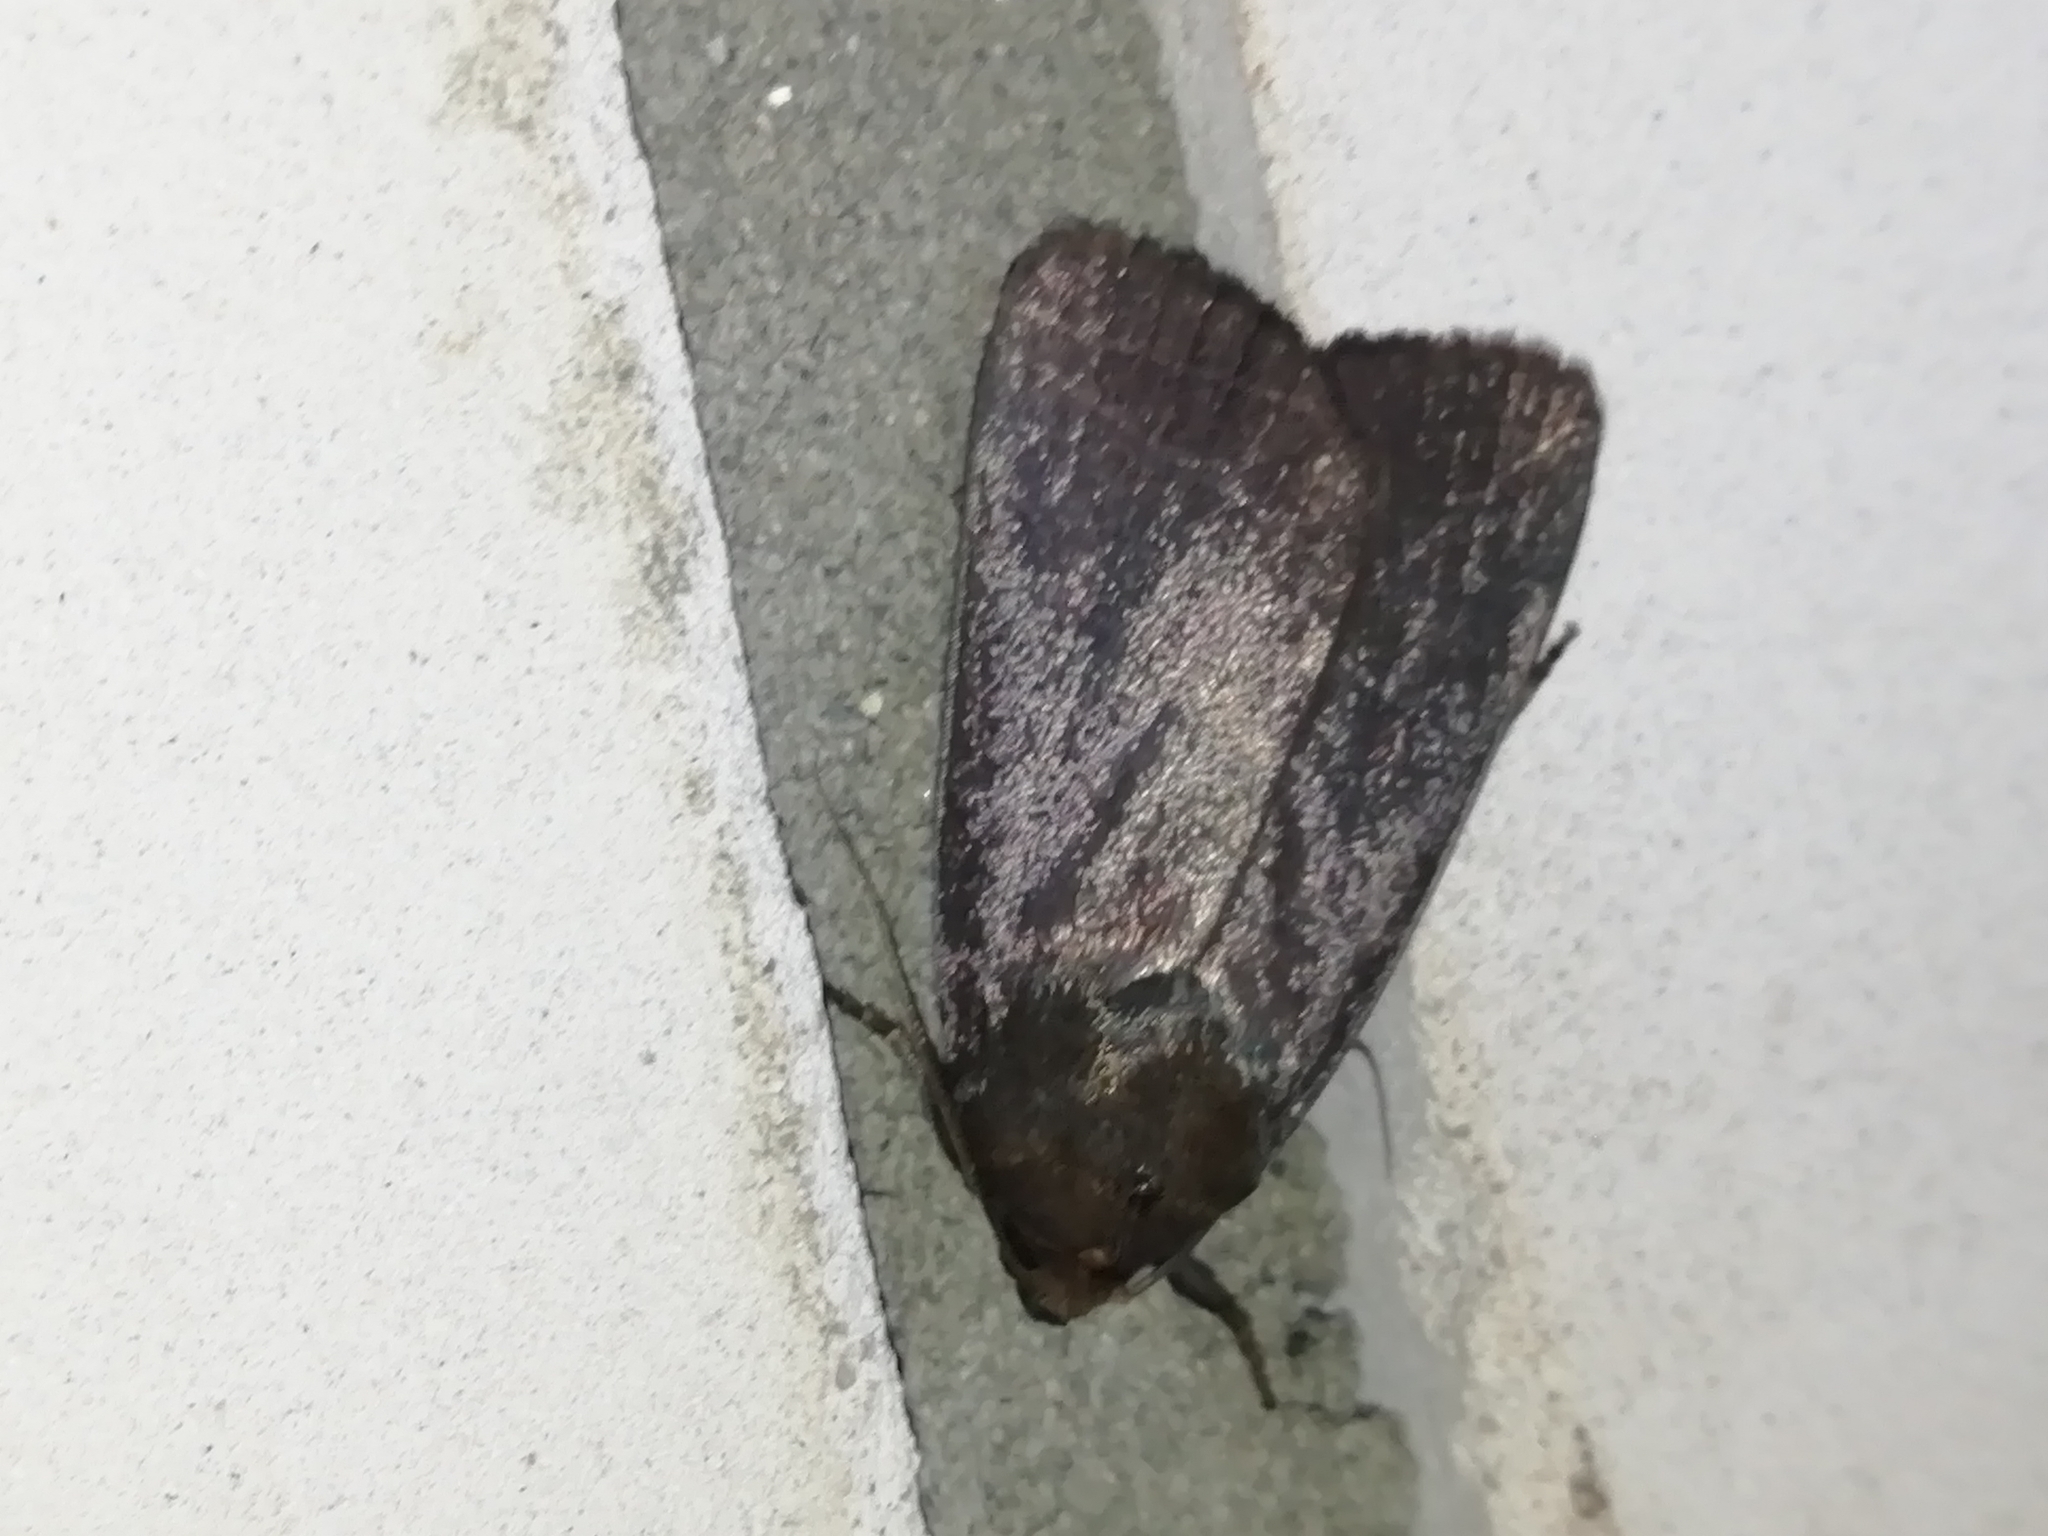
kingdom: Animalia
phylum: Arthropoda
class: Insecta
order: Lepidoptera
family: Noctuidae
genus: Amphipyra
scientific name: Amphipyra livida
